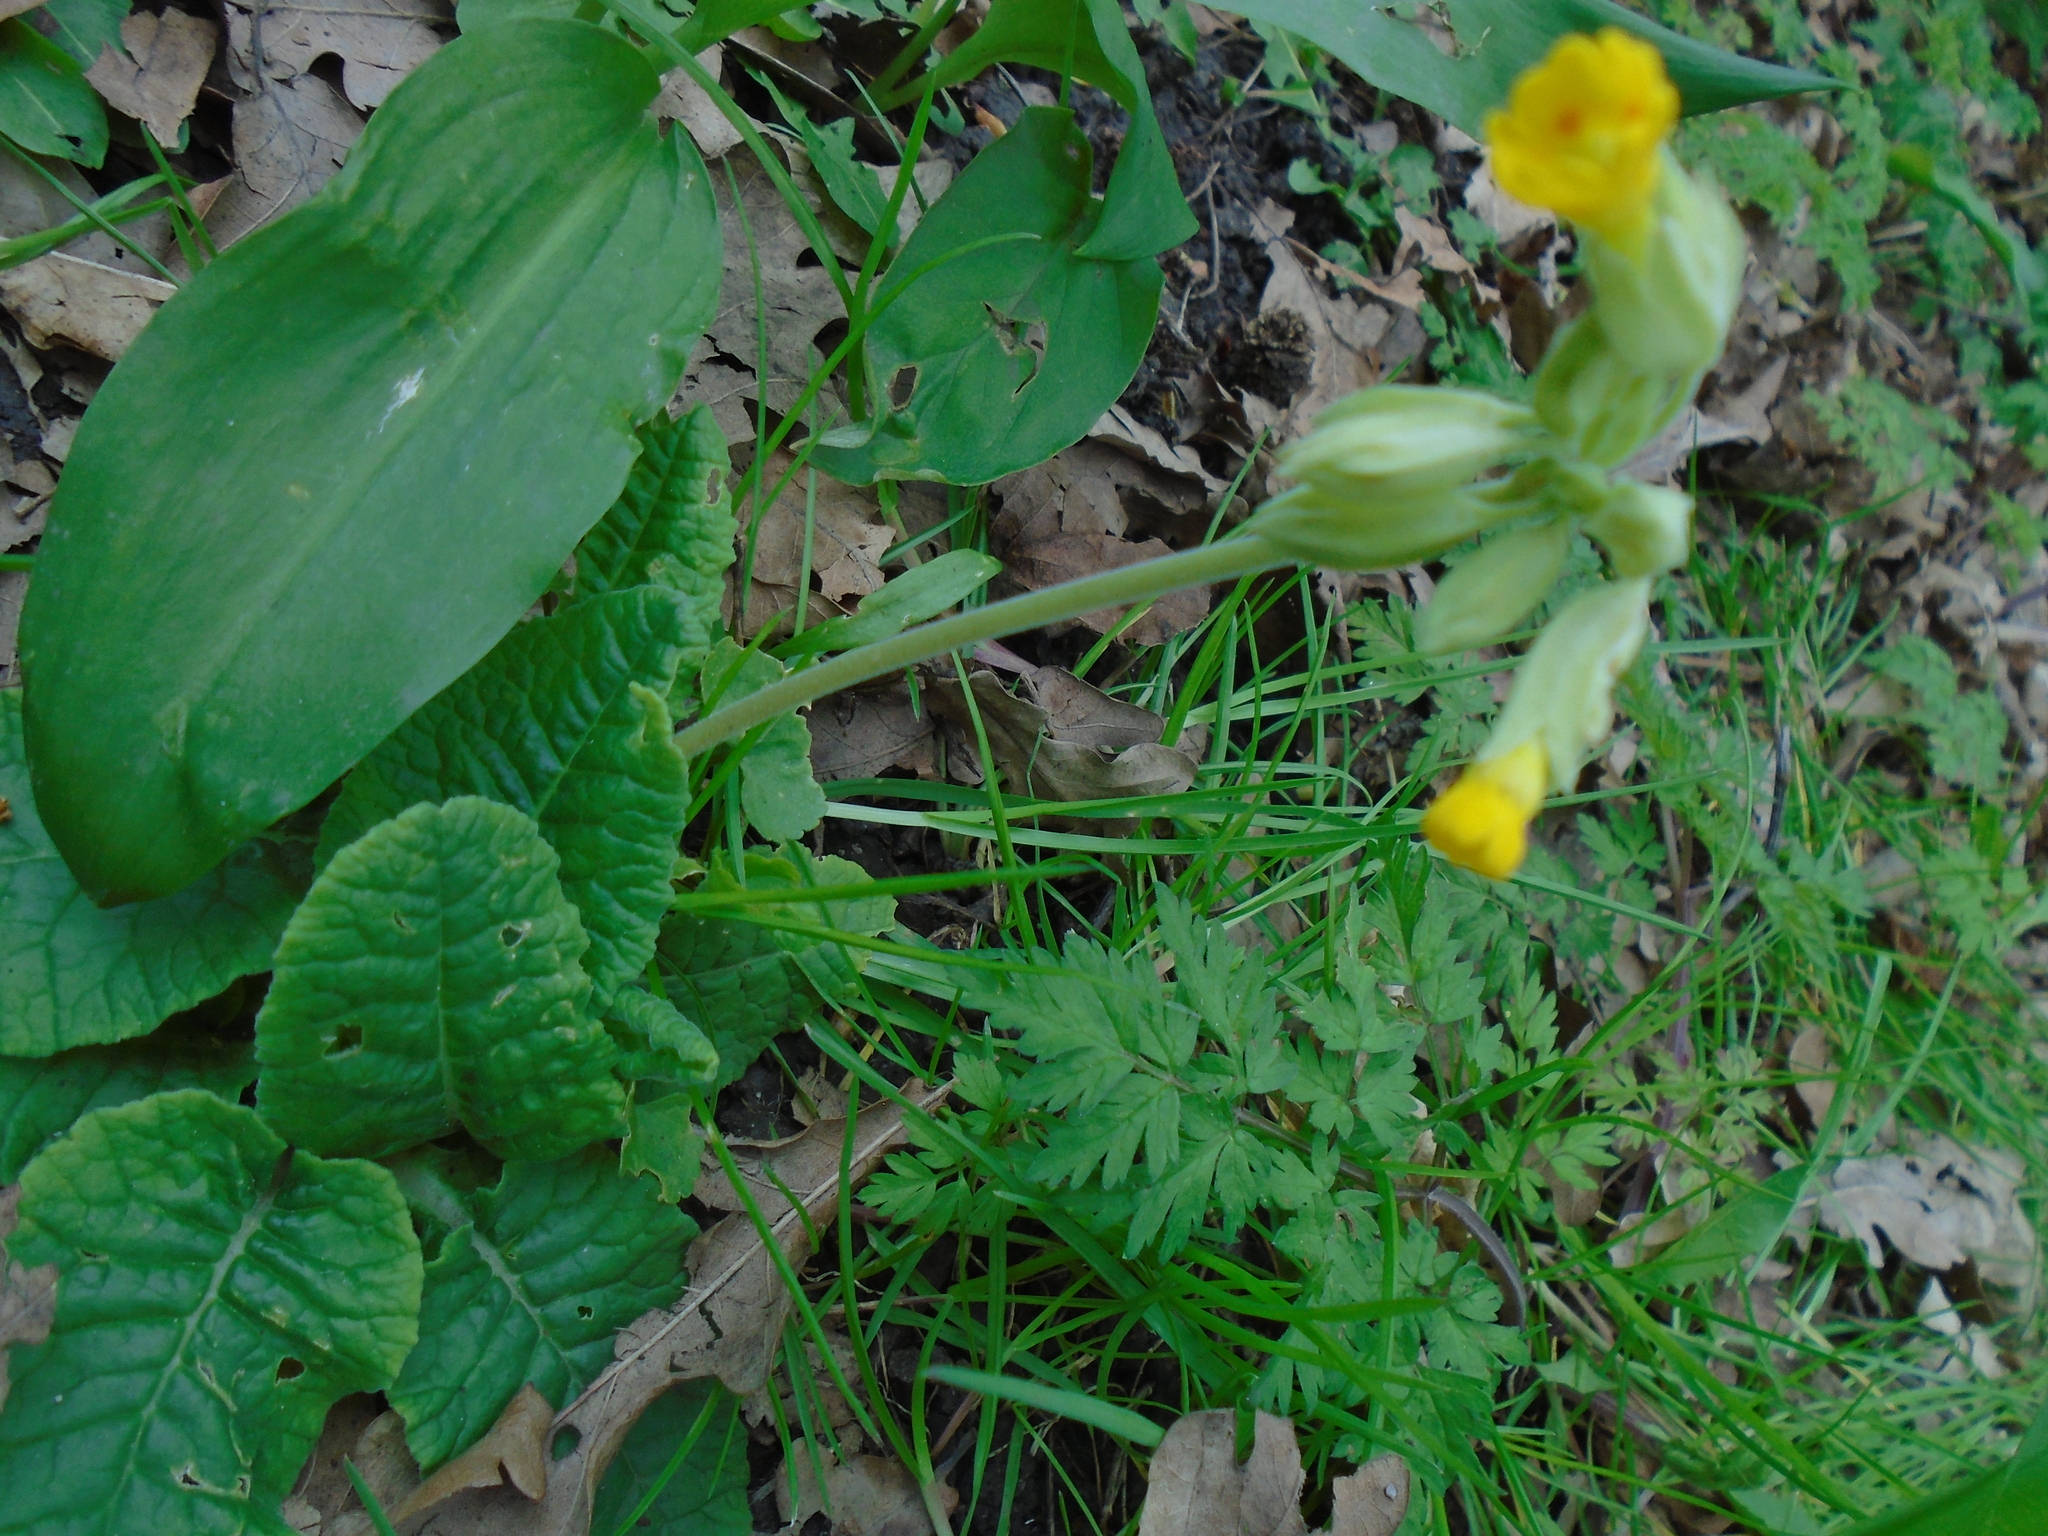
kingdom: Plantae
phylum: Tracheophyta
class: Magnoliopsida
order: Ericales
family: Primulaceae
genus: Primula
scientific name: Primula veris
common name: Cowslip
